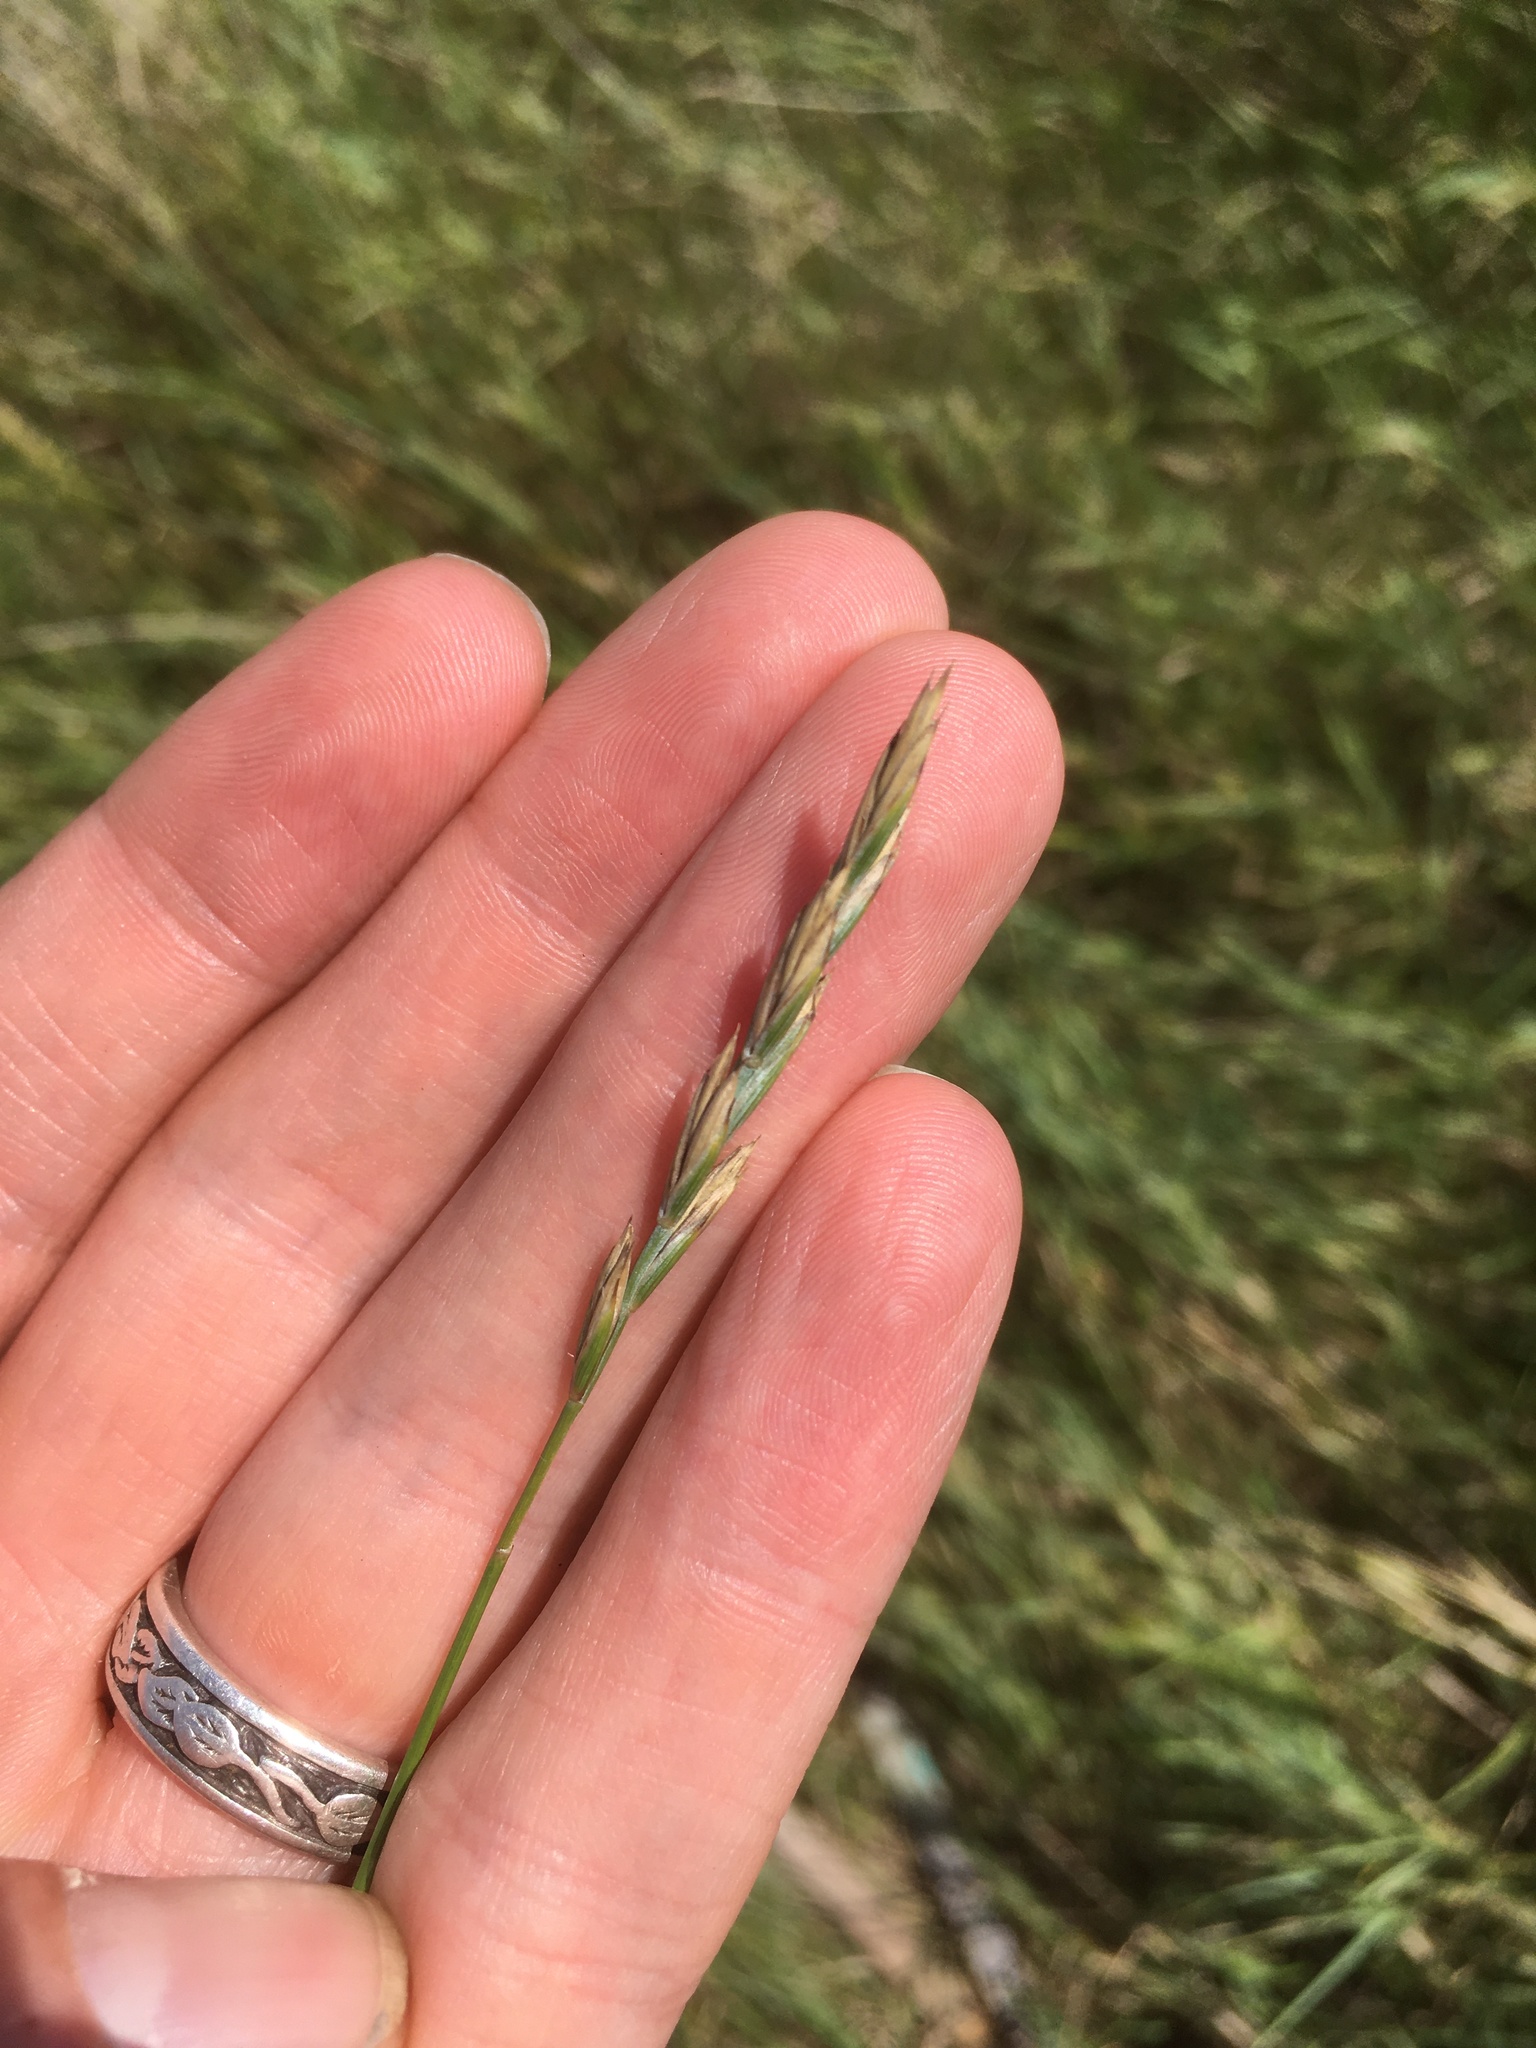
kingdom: Plantae
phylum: Tracheophyta
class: Liliopsida
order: Poales
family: Poaceae
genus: Elymus
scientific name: Elymus repens
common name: Quackgrass
